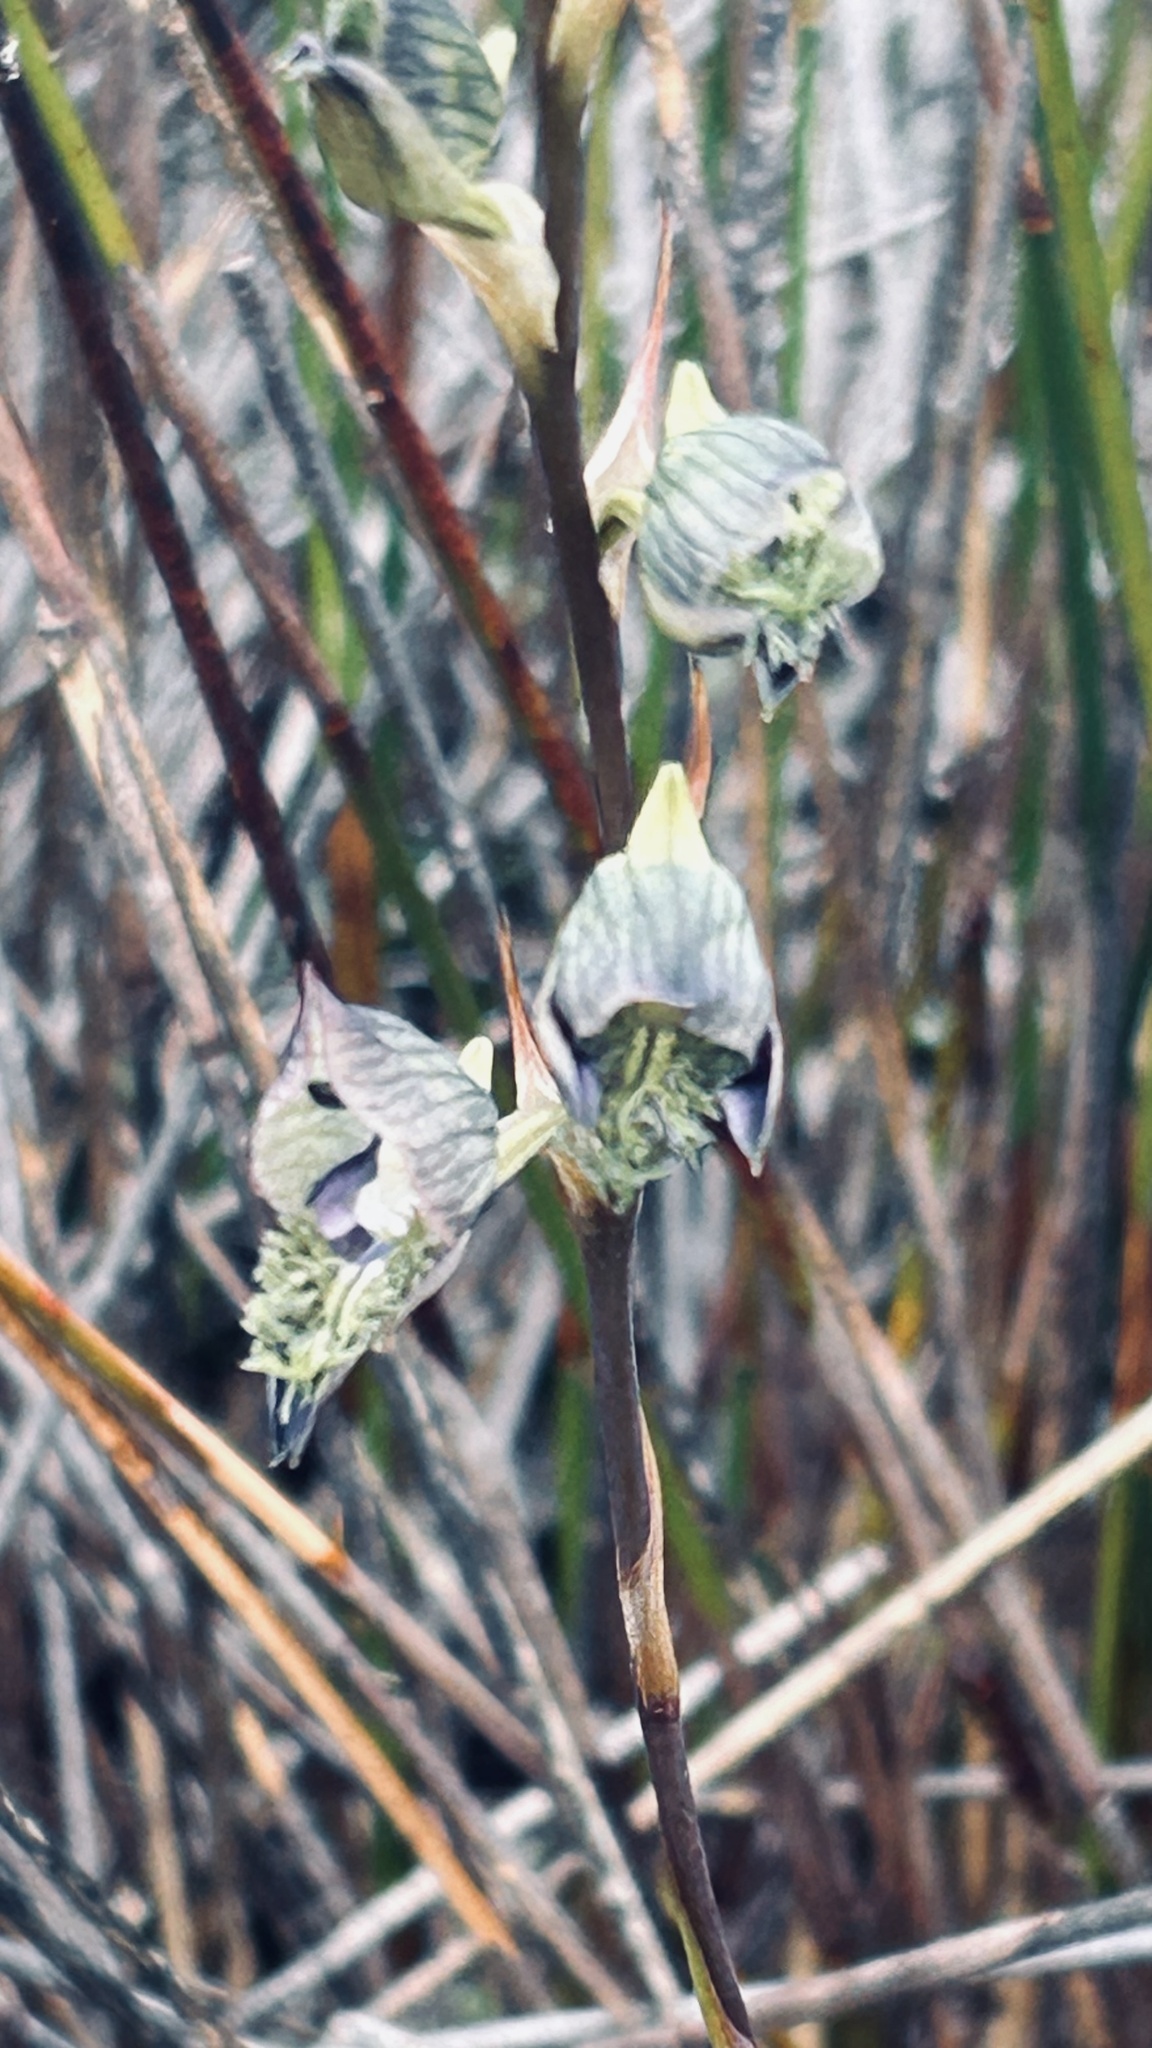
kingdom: Plantae
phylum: Tracheophyta
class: Liliopsida
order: Asparagales
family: Orchidaceae
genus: Disa
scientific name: Disa lugens
